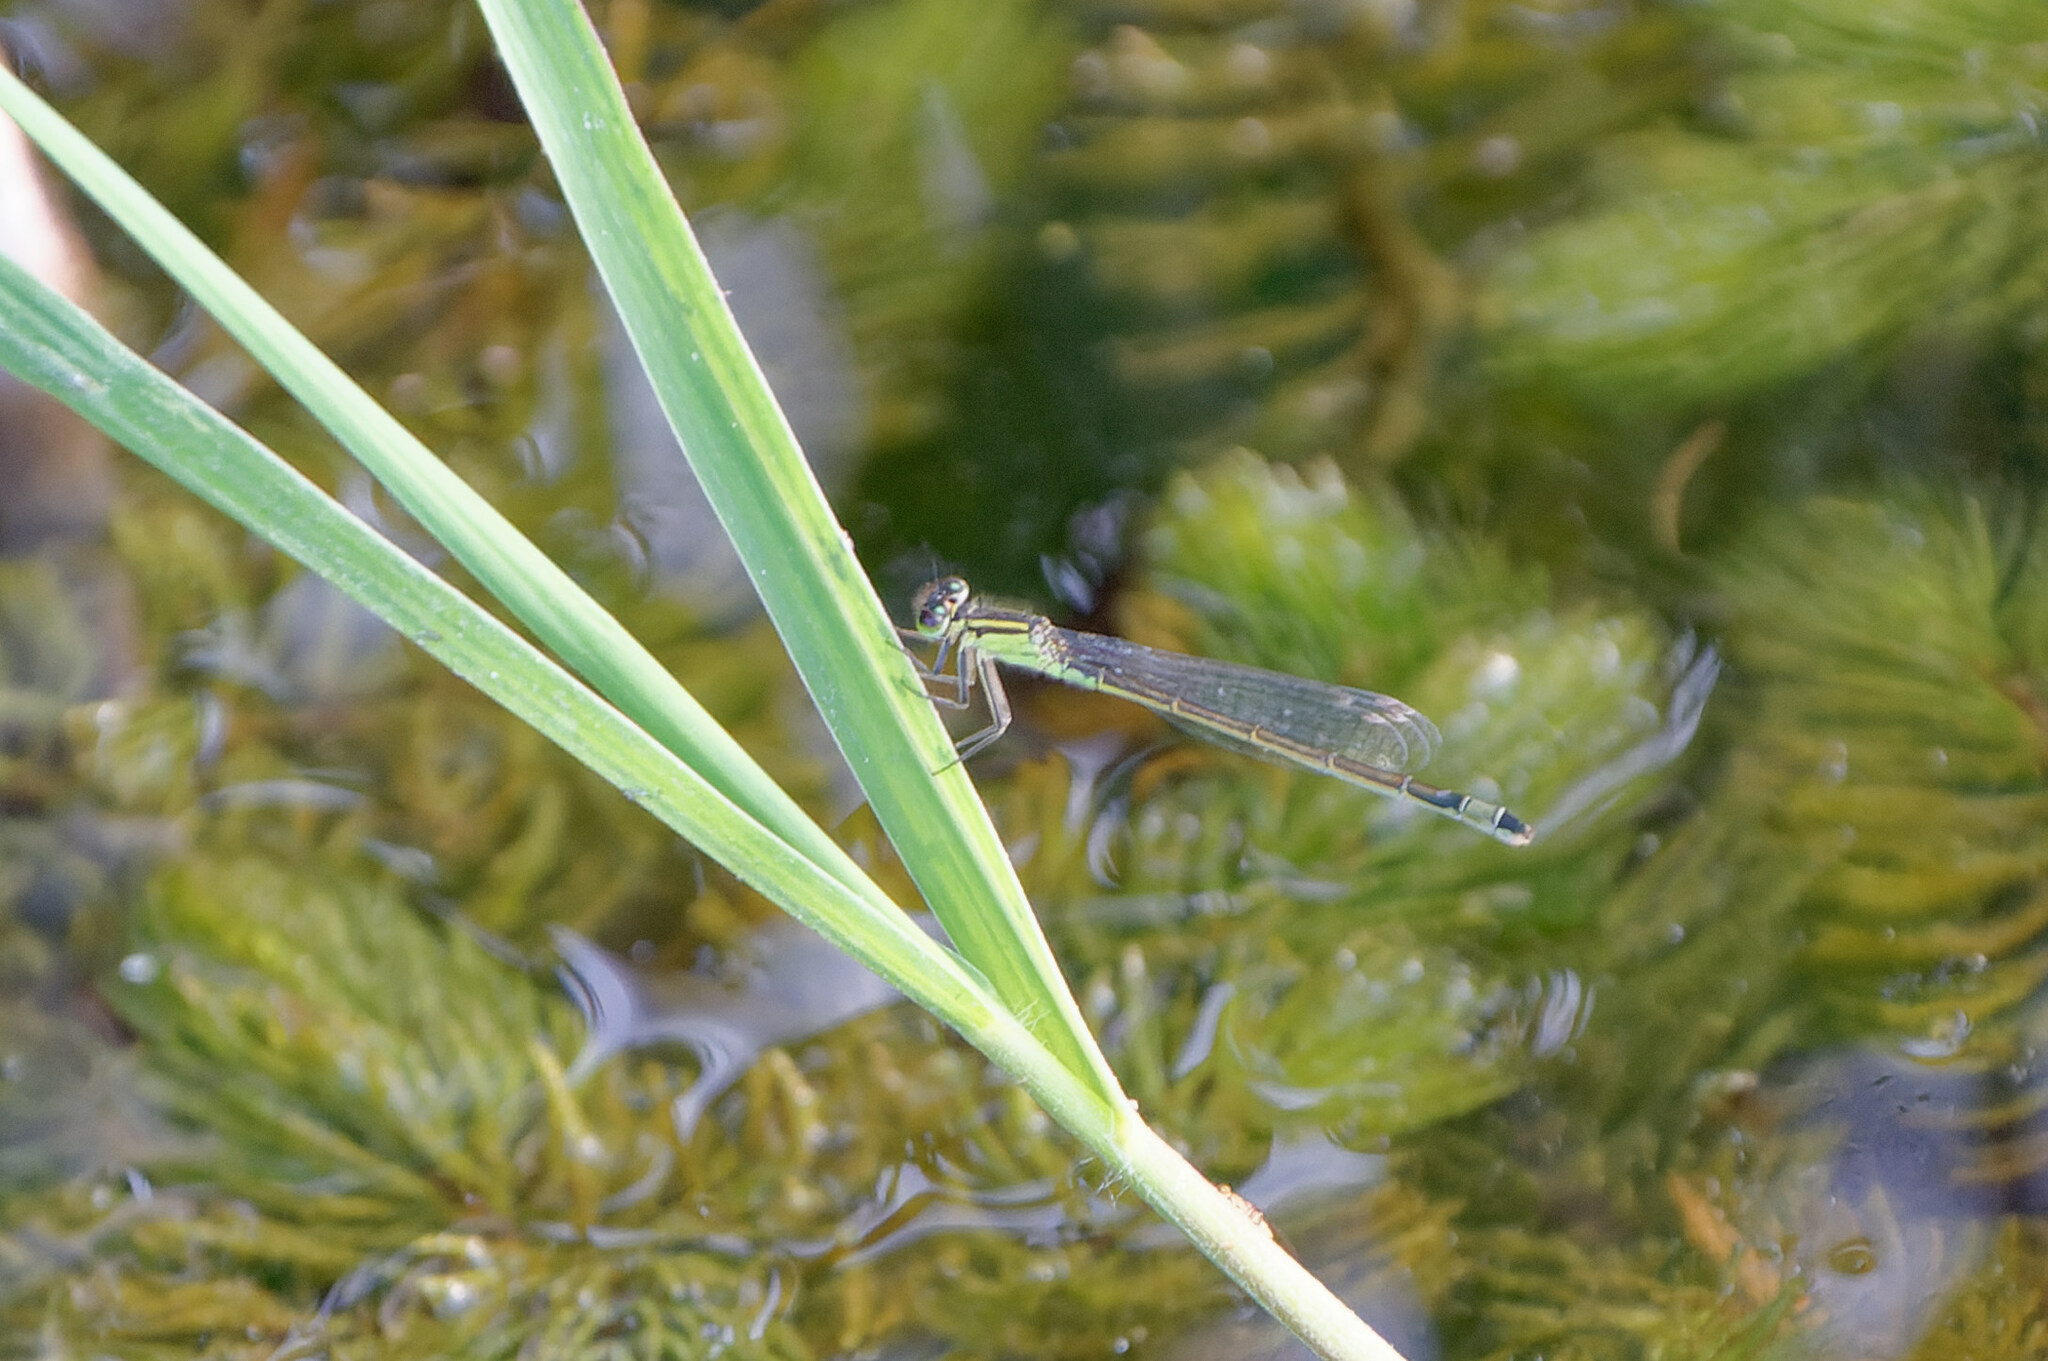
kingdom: Animalia
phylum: Arthropoda
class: Insecta
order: Odonata
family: Coenagrionidae
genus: Ischnura
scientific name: Ischnura elegans
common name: Blue-tailed damselfly
